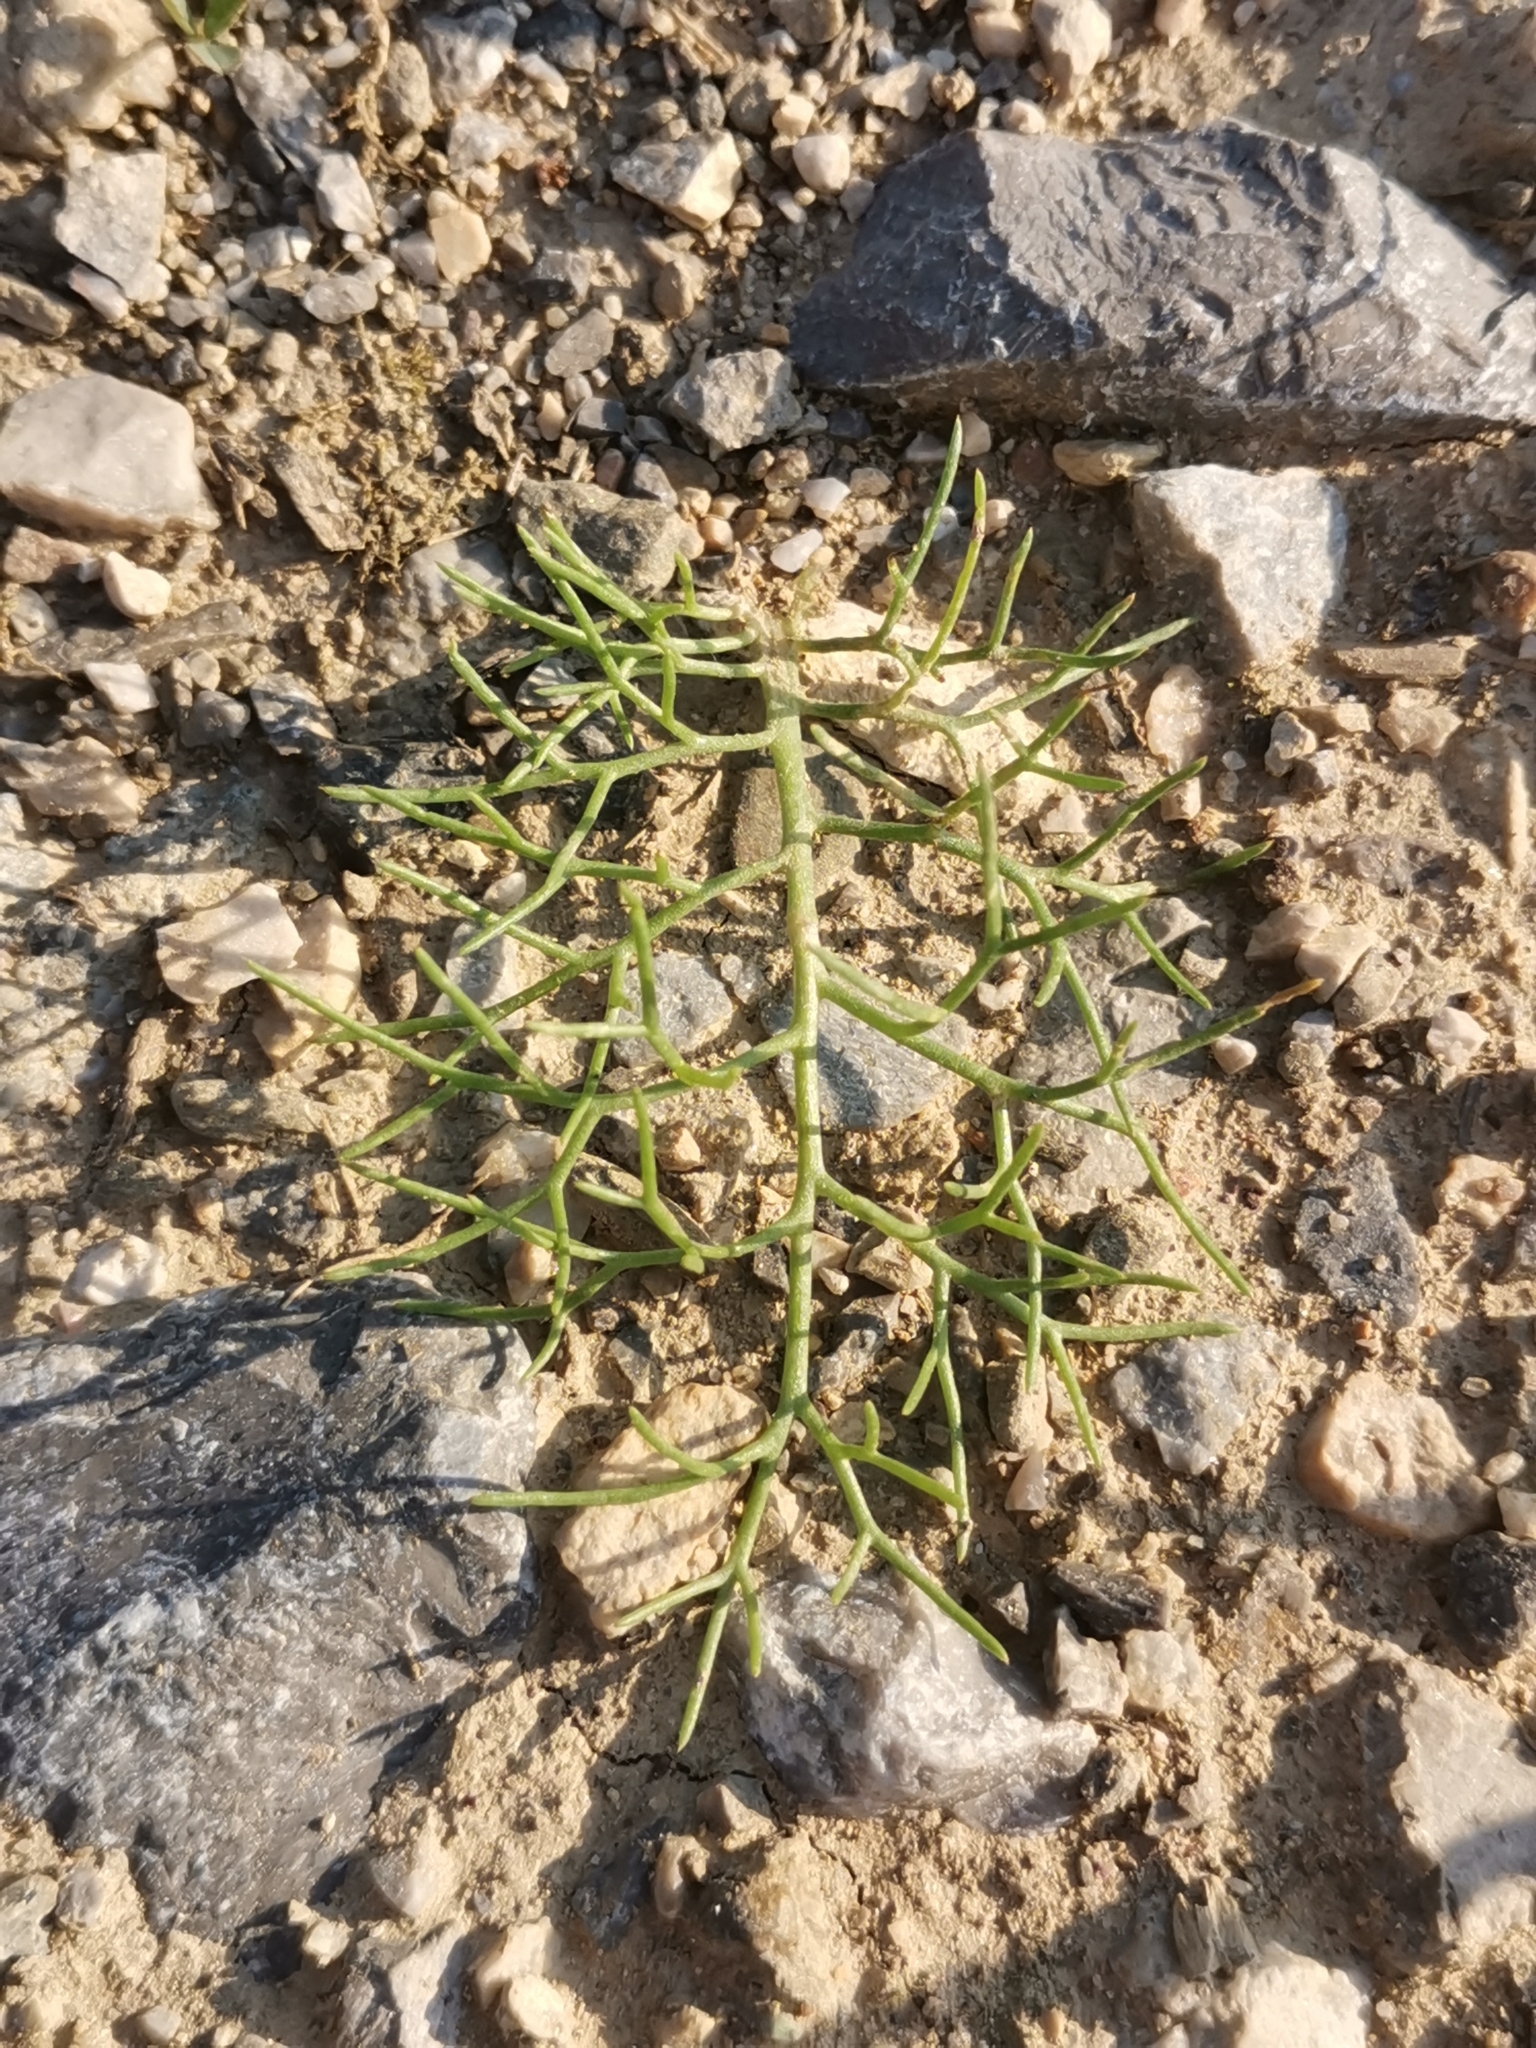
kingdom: Plantae
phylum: Tracheophyta
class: Magnoliopsida
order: Asterales
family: Asteraceae
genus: Tripleurospermum
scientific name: Tripleurospermum inodorum
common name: Scentless mayweed
